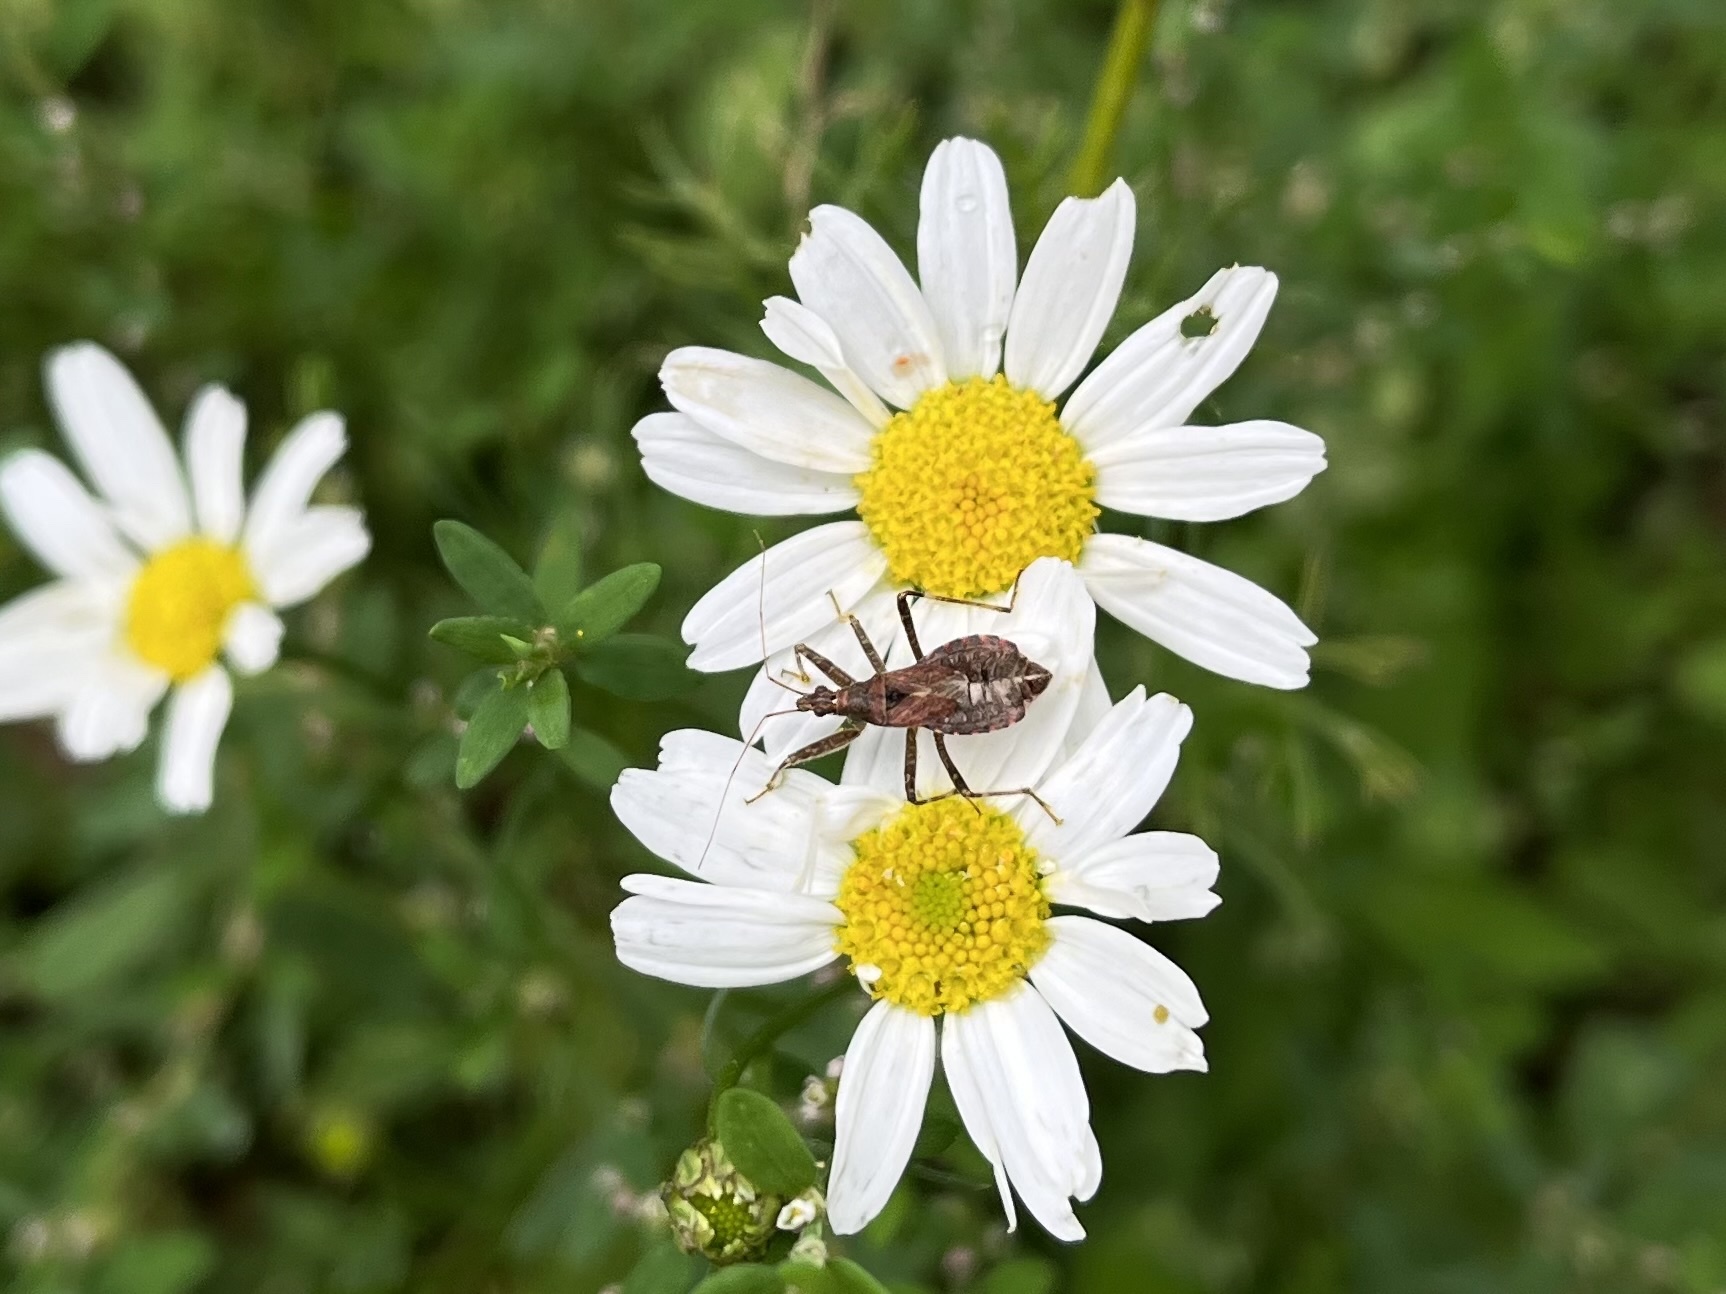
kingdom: Animalia
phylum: Arthropoda
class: Insecta
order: Hemiptera
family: Nabidae
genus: Himacerus
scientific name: Himacerus apterus
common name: Tree damsel bug
